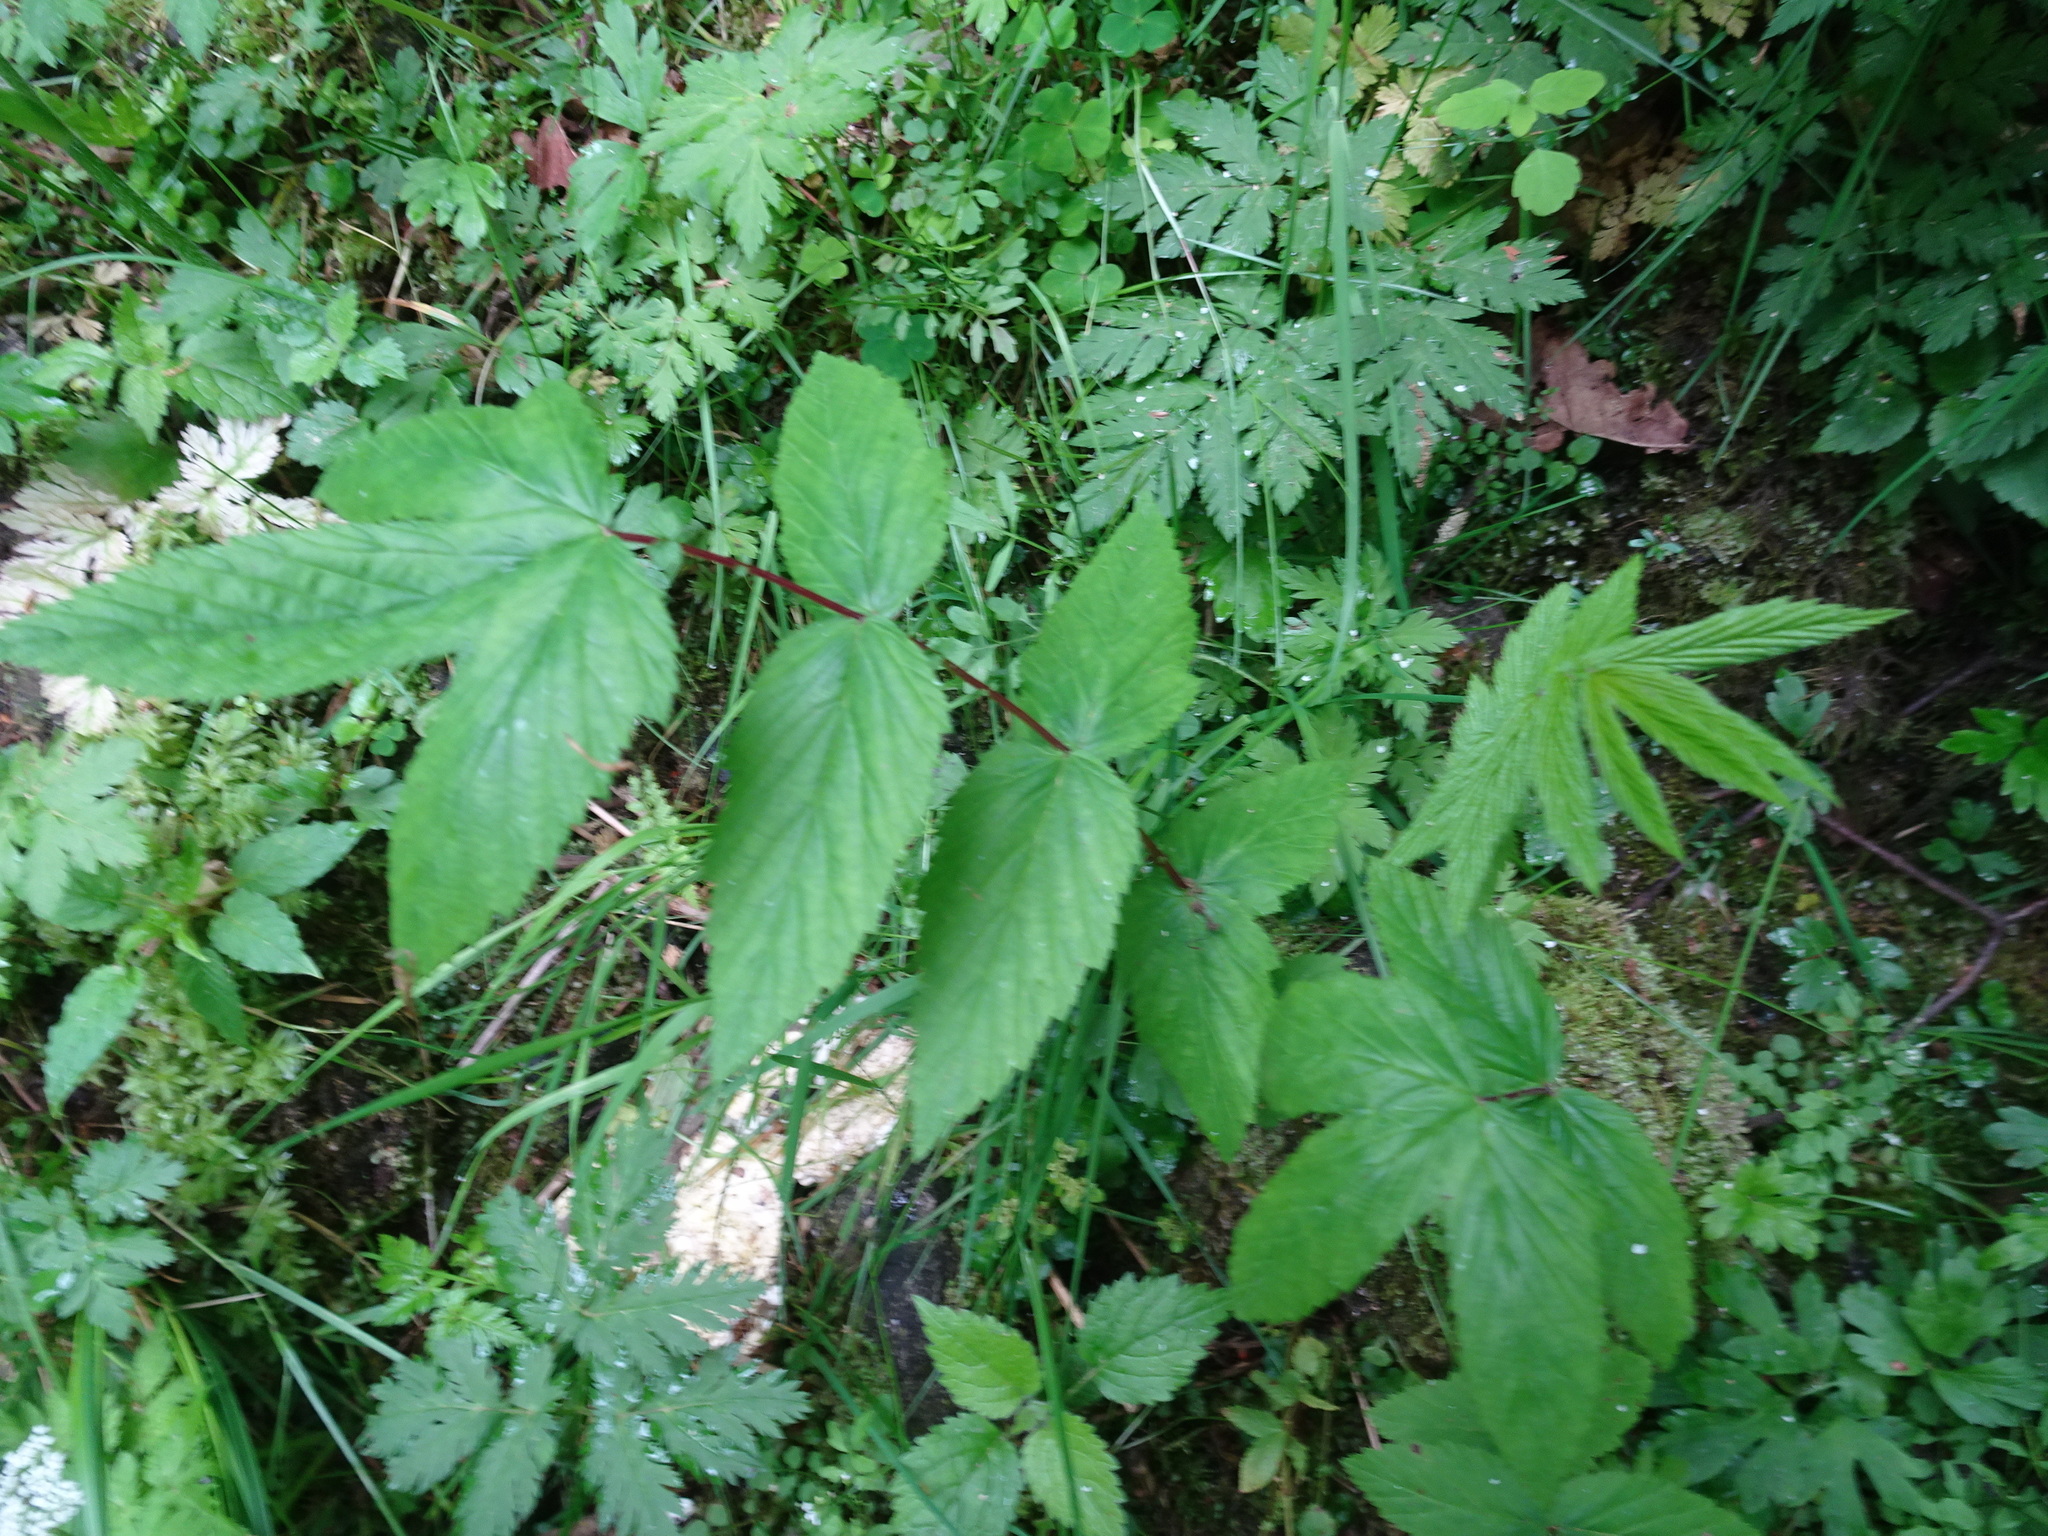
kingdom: Plantae
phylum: Tracheophyta
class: Magnoliopsida
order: Rosales
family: Rosaceae
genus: Filipendula
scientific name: Filipendula ulmaria
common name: Meadowsweet
